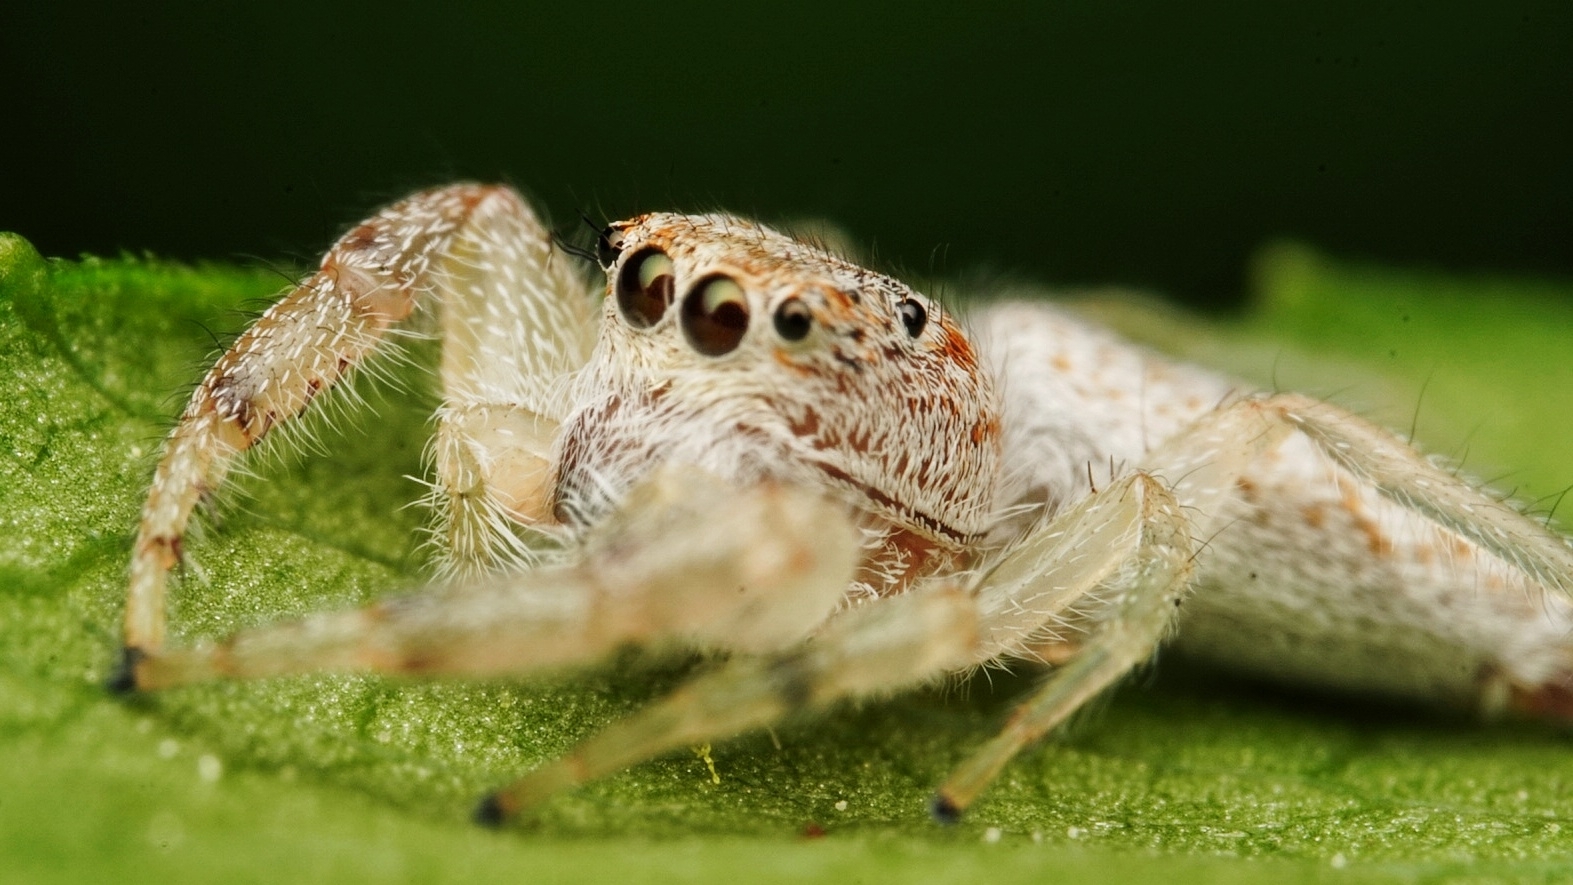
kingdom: Animalia
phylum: Arthropoda
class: Arachnida
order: Araneae
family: Salticidae
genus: Hentzia
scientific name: Hentzia mitrata
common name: White-jawed jumping spider
